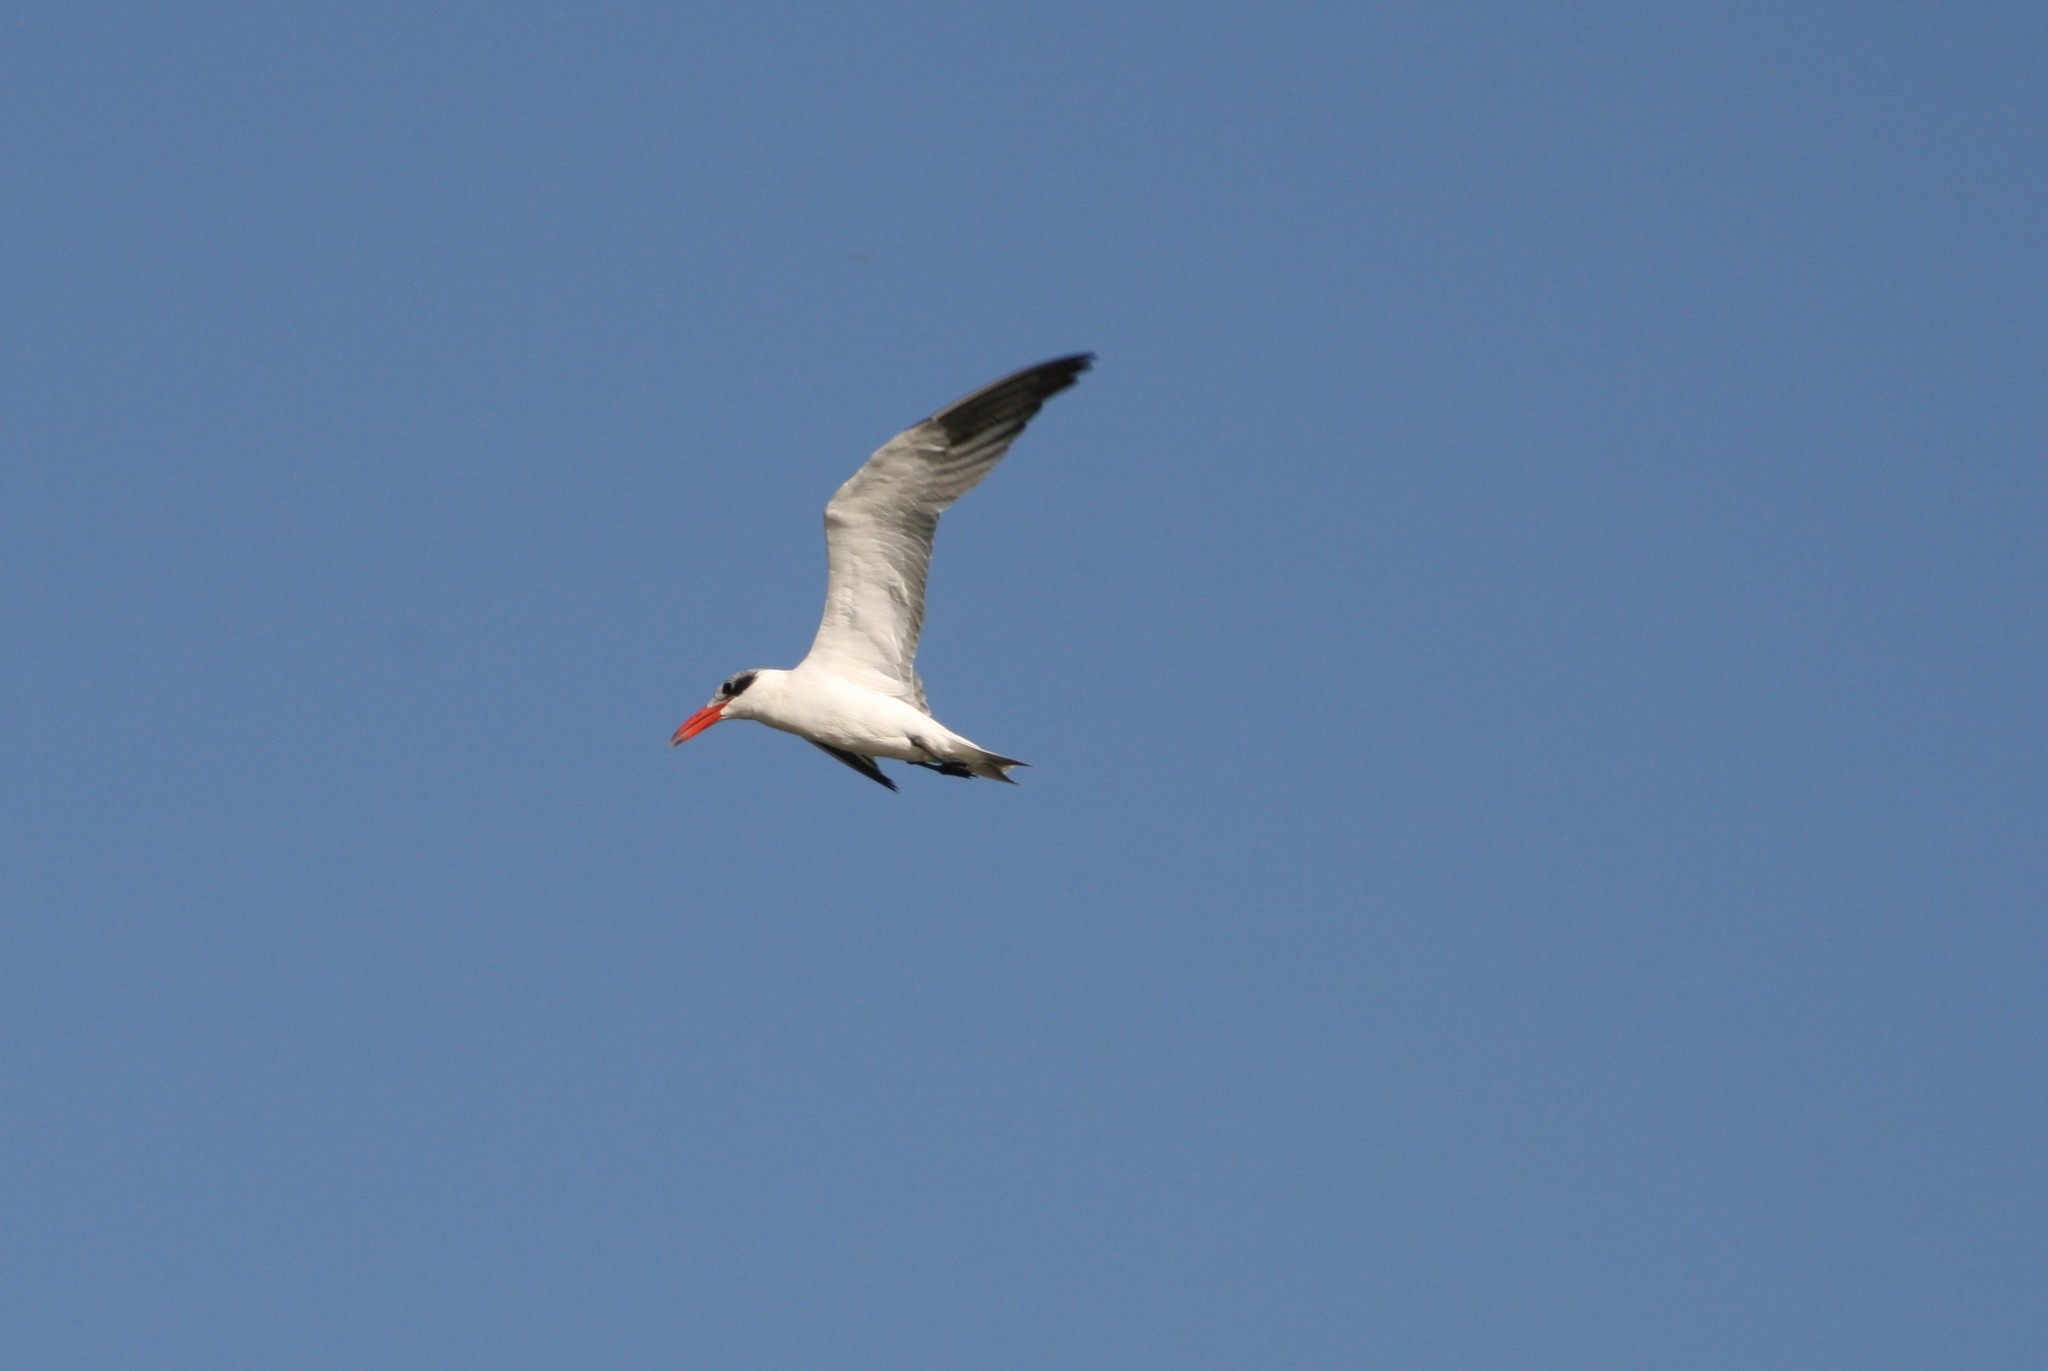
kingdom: Animalia
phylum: Chordata
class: Aves
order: Charadriiformes
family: Laridae
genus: Hydroprogne
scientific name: Hydroprogne caspia
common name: Caspian tern
